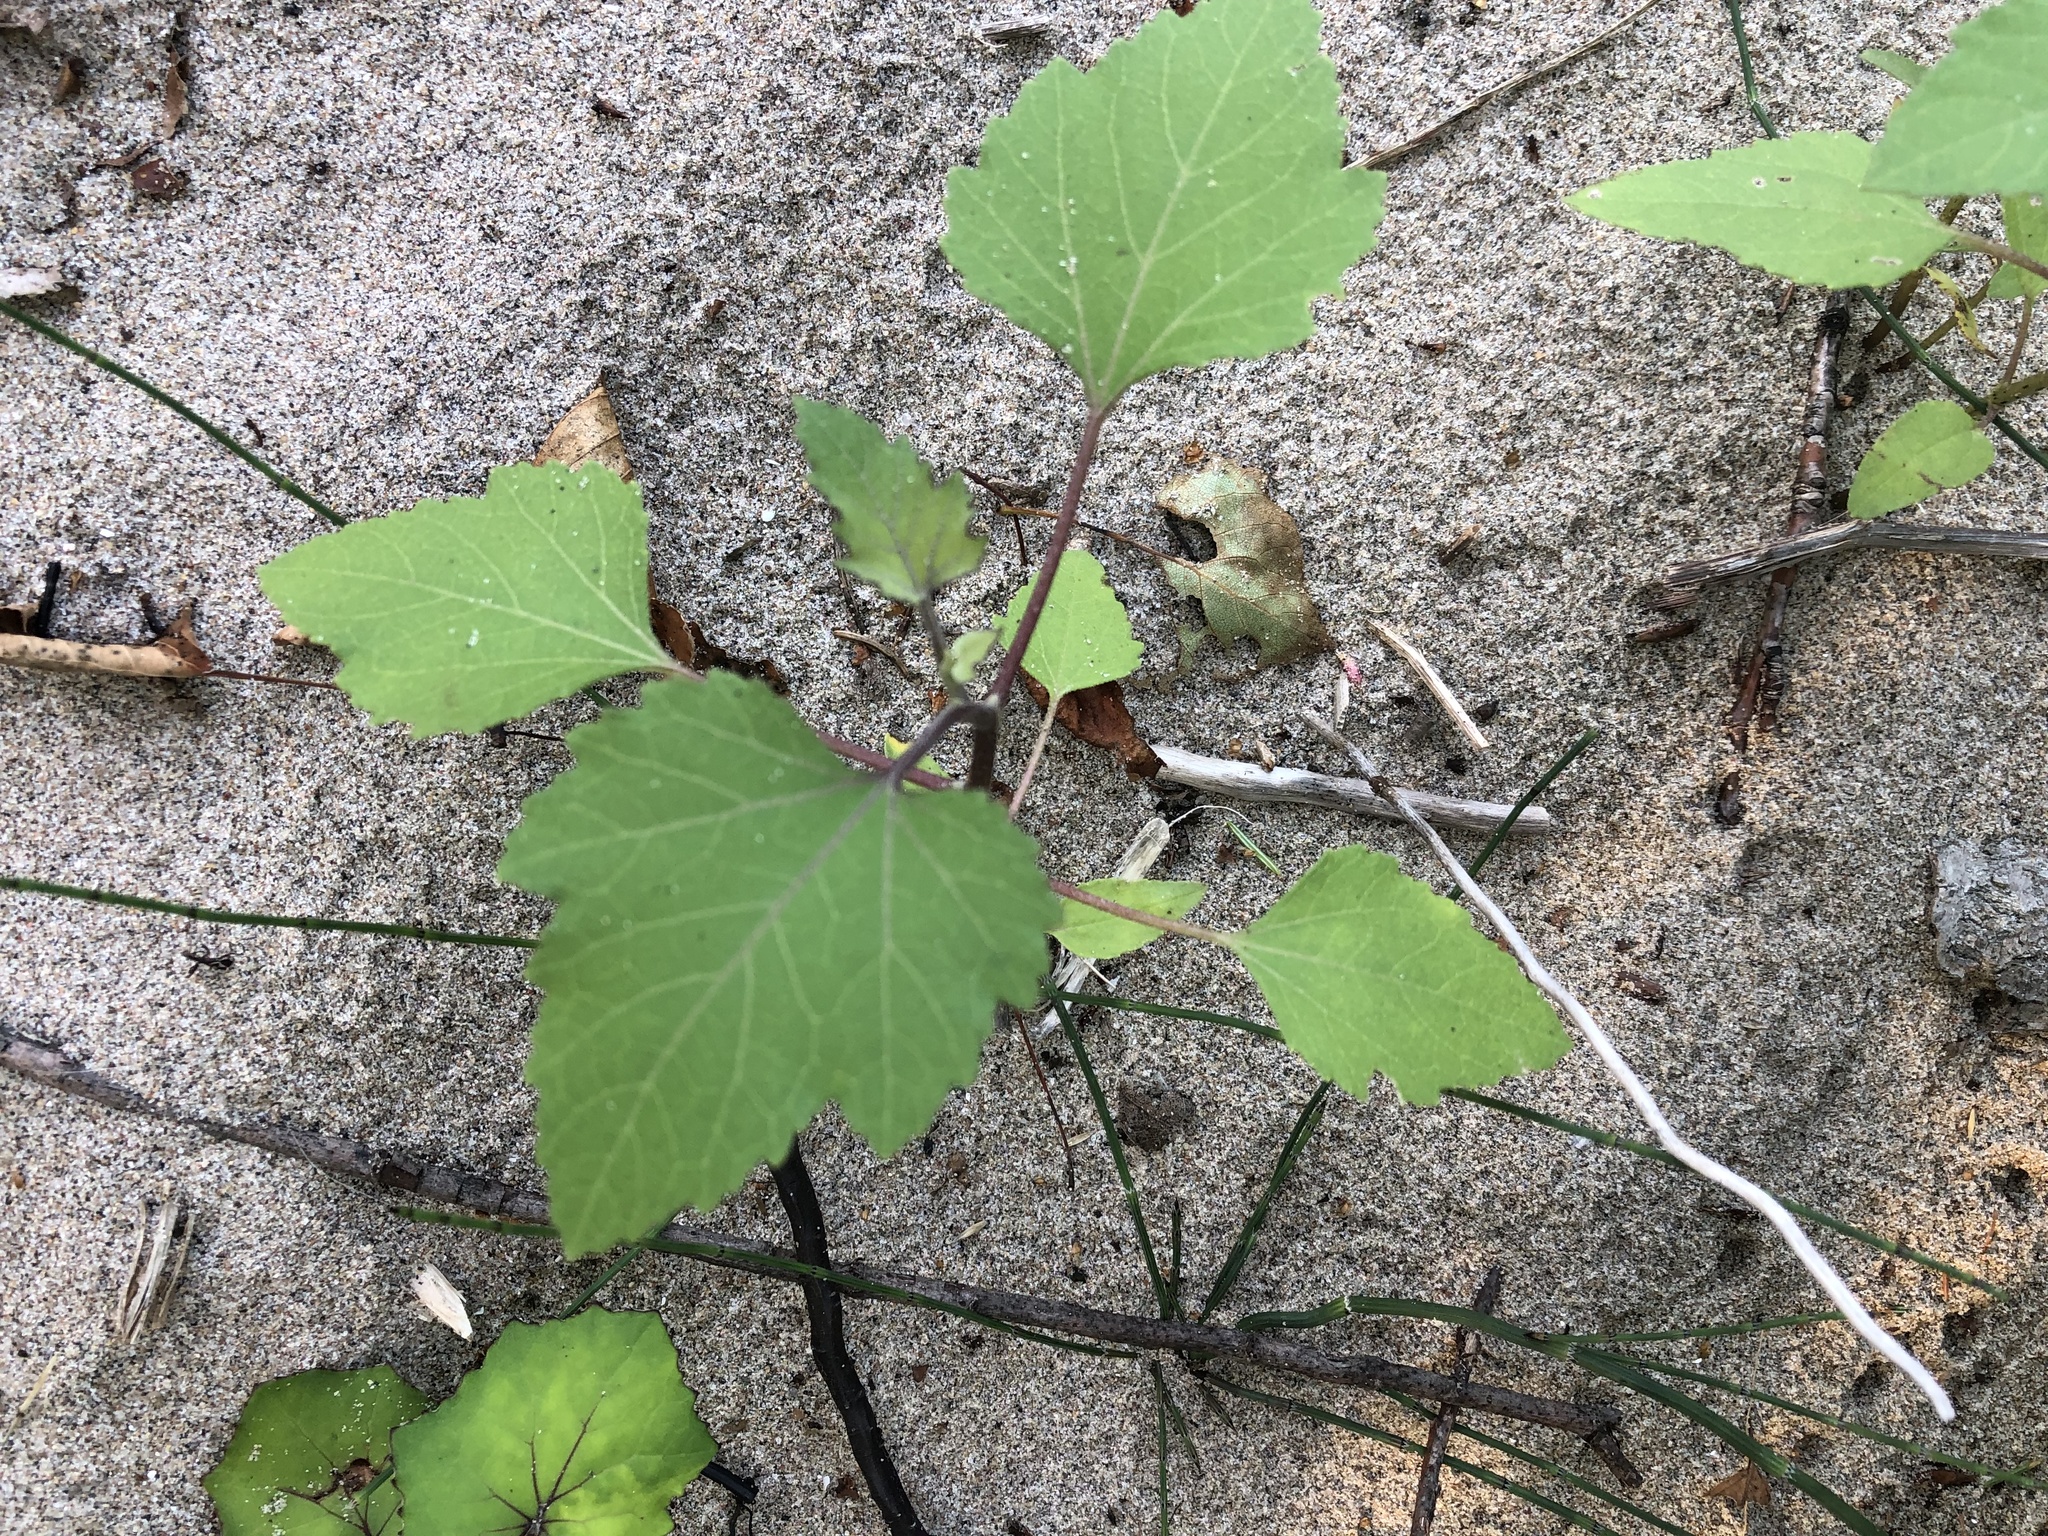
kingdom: Plantae
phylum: Tracheophyta
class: Magnoliopsida
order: Asterales
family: Asteraceae
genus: Xanthium
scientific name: Xanthium strumarium
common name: Rough cocklebur
